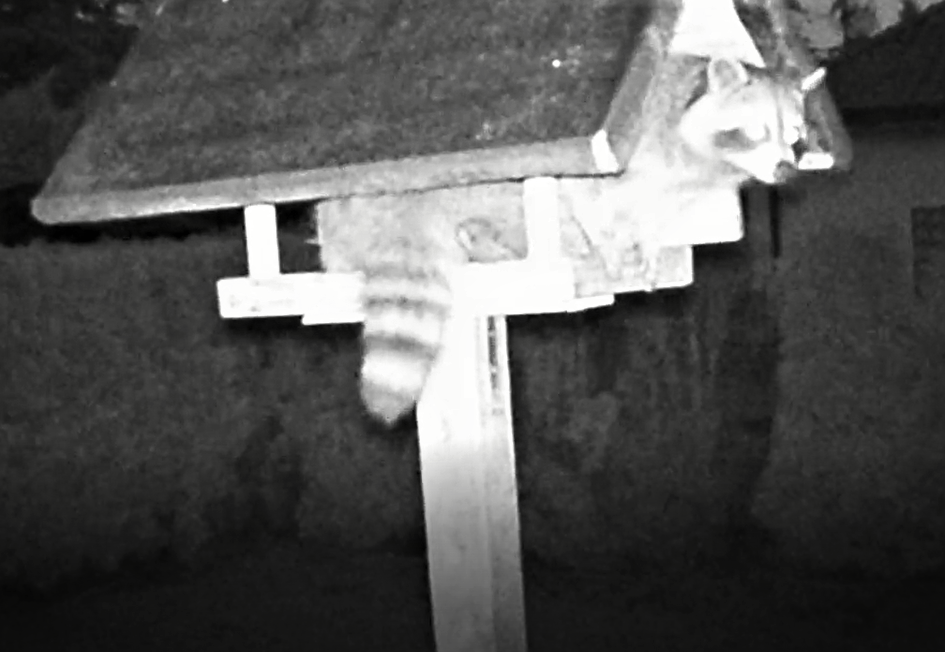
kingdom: Animalia
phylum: Chordata
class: Mammalia
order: Carnivora
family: Procyonidae
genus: Procyon
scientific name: Procyon lotor
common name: Raccoon
